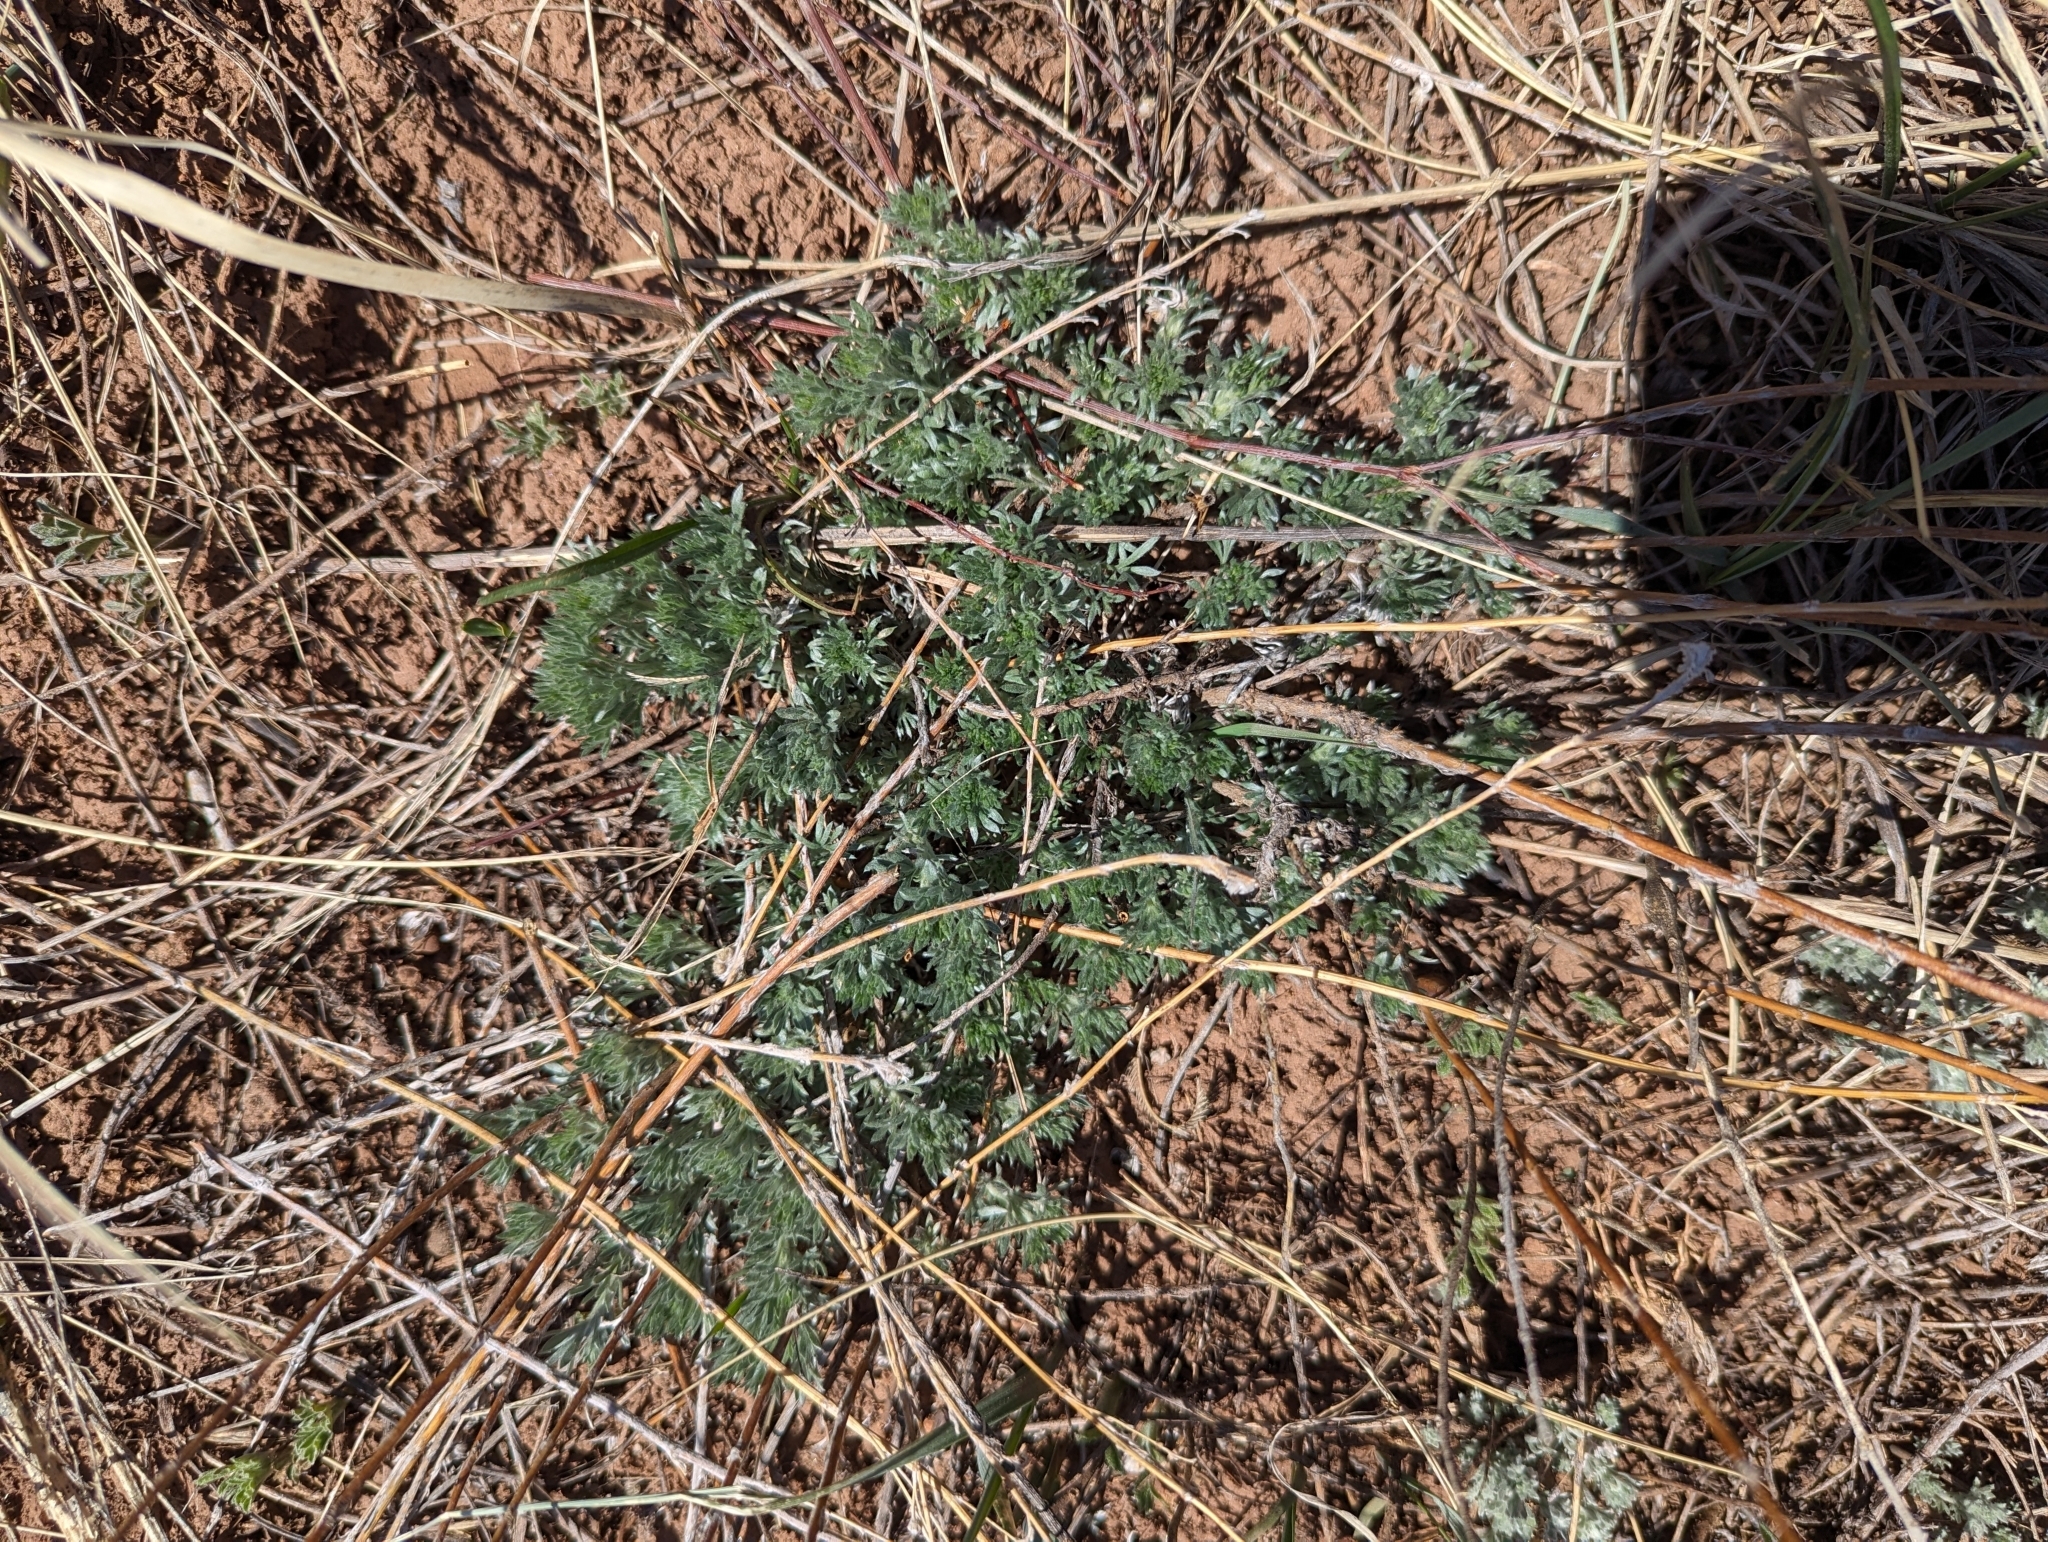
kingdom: Plantae
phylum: Tracheophyta
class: Magnoliopsida
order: Asterales
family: Asteraceae
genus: Artemisia
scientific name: Artemisia frigida
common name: Prairie sagewort
